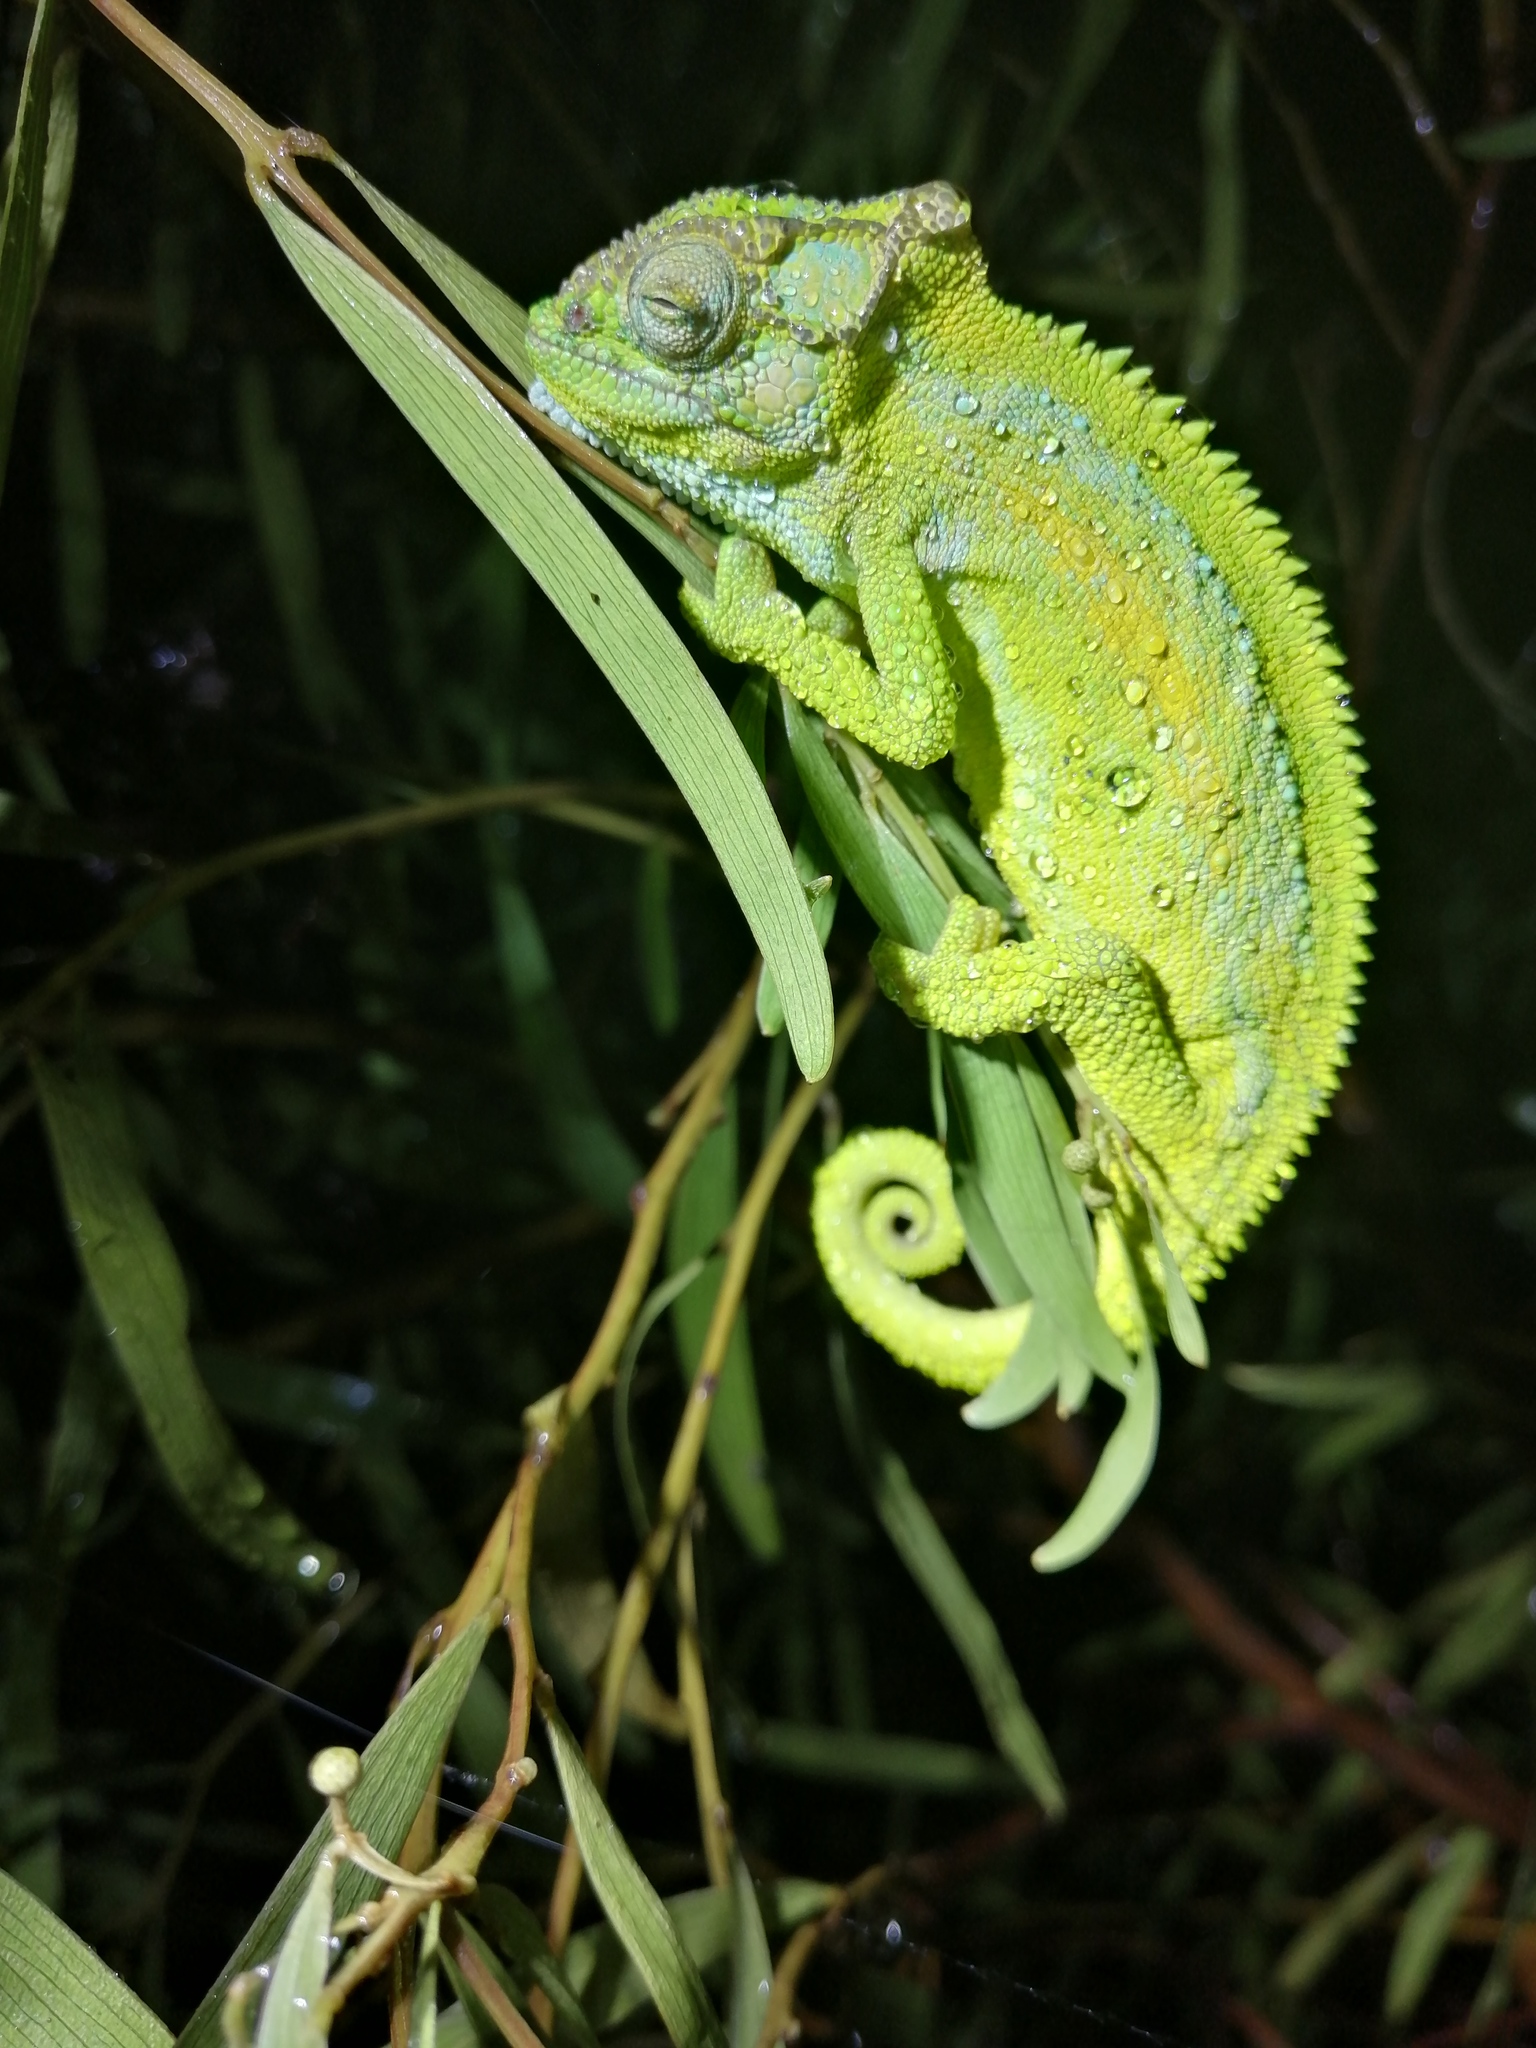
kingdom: Animalia
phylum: Chordata
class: Squamata
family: Chamaeleonidae
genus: Bradypodion
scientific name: Bradypodion pumilum
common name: Cape dwarf chameleon
